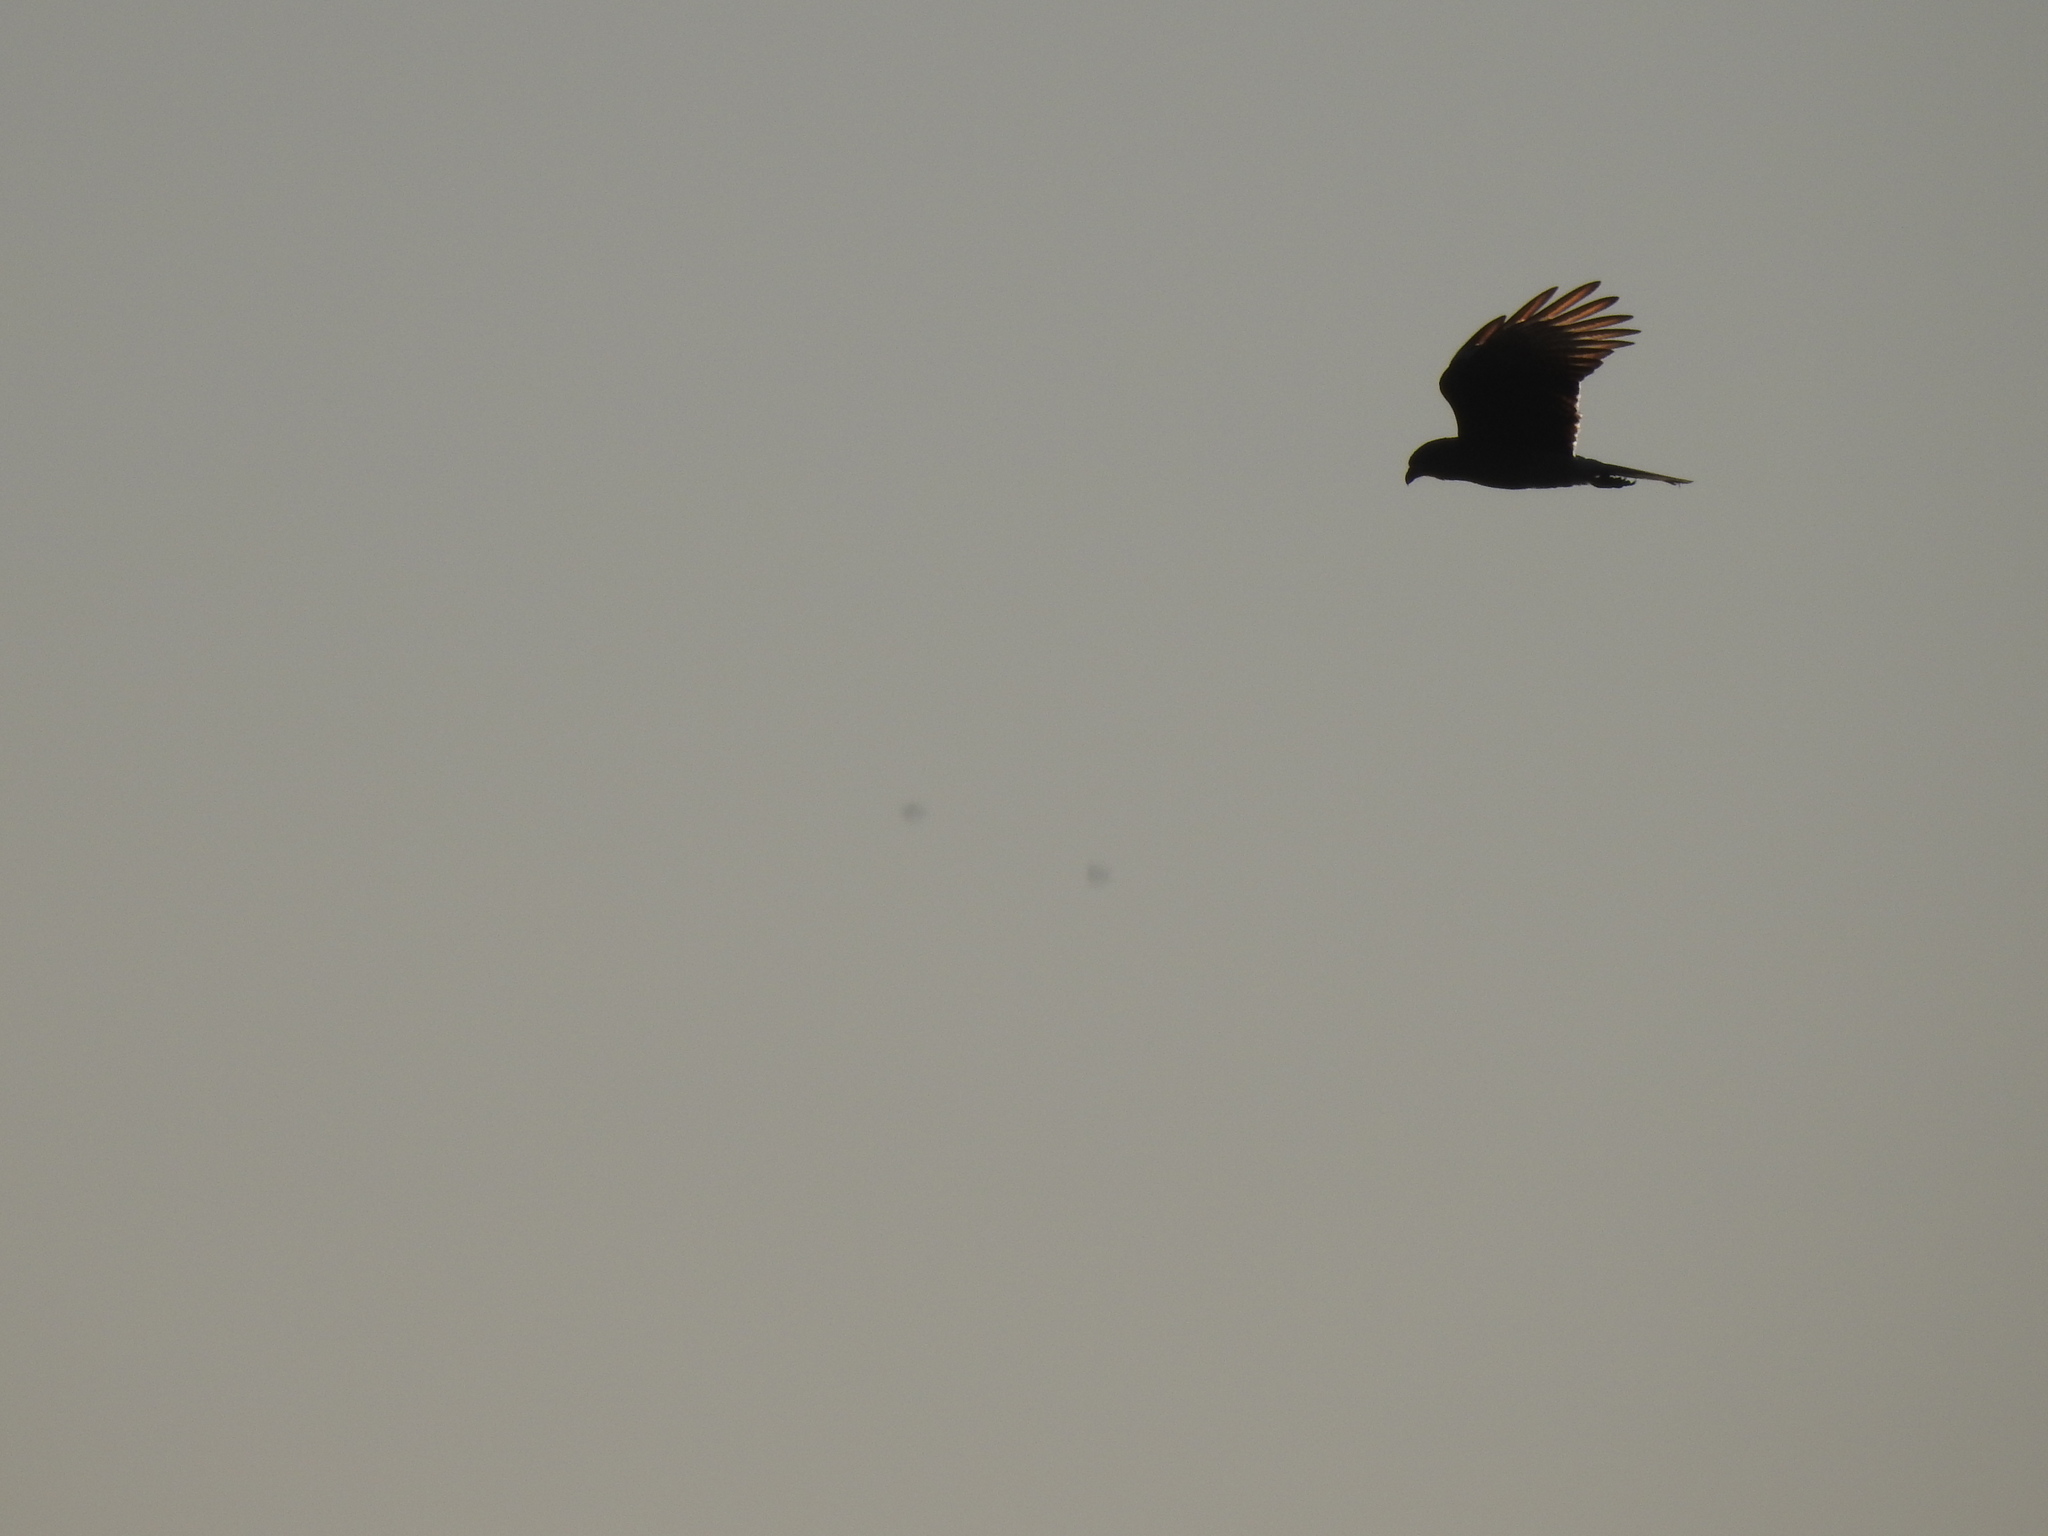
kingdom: Animalia
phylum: Chordata
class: Aves
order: Falconiformes
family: Falconidae
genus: Daptrius
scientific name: Daptrius
